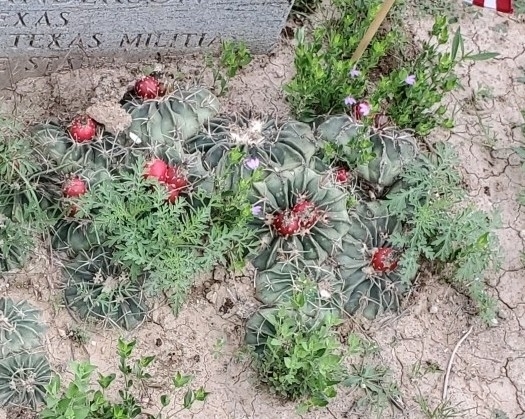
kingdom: Plantae
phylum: Tracheophyta
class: Magnoliopsida
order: Caryophyllales
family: Cactaceae
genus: Echinocactus
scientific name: Echinocactus texensis
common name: Devil's pincushion
